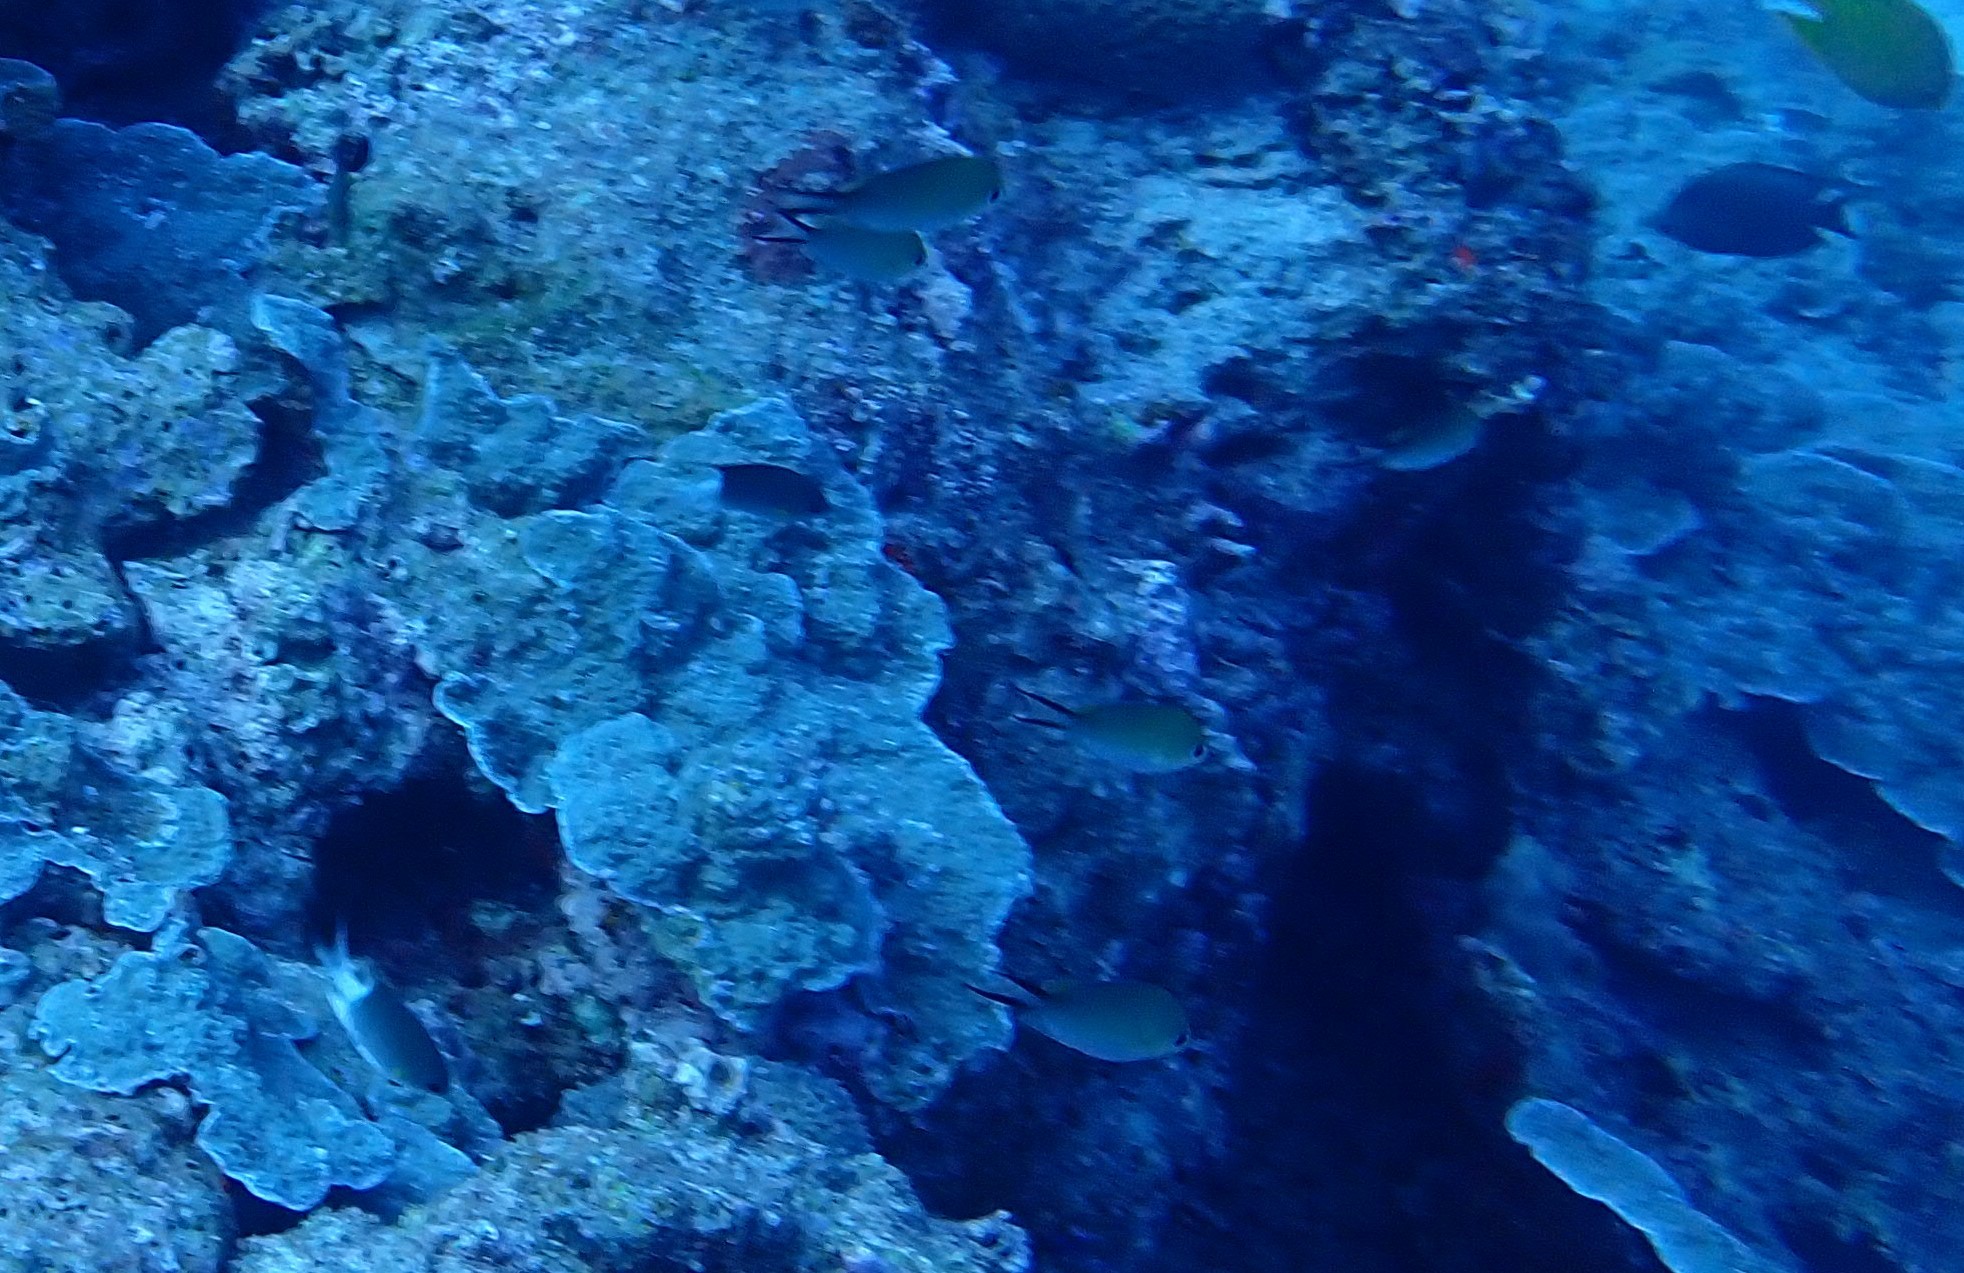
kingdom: Animalia
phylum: Chordata
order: Perciformes
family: Pomacentridae
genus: Chromis
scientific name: Chromis ternatensis
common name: Ternate chromis
